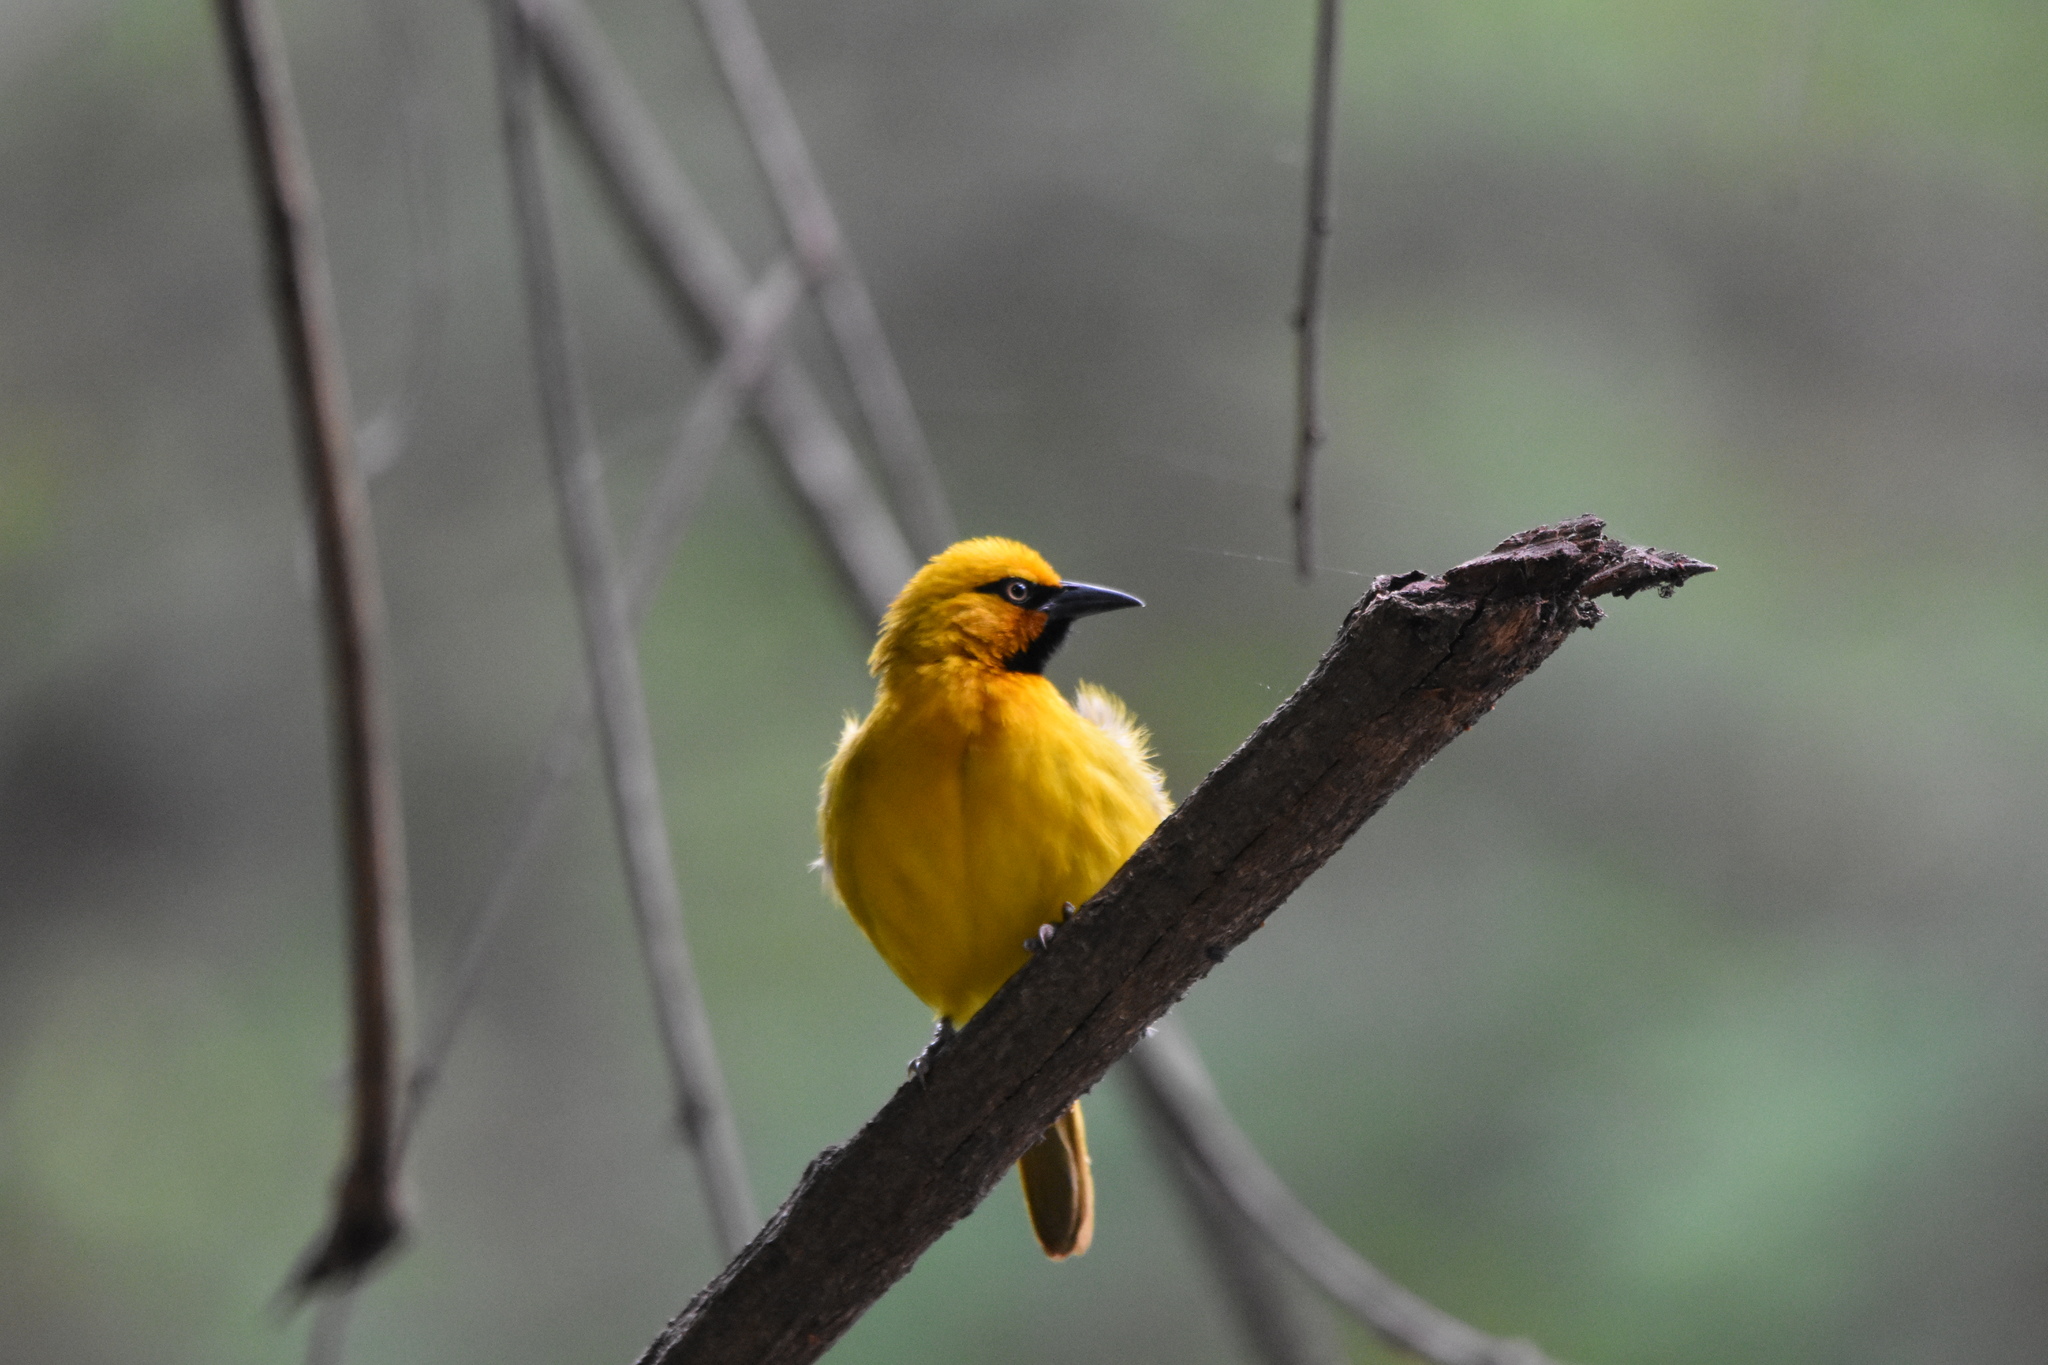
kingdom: Animalia
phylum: Chordata
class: Aves
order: Passeriformes
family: Ploceidae
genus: Ploceus
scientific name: Ploceus ocularis
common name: Spectacled weaver
